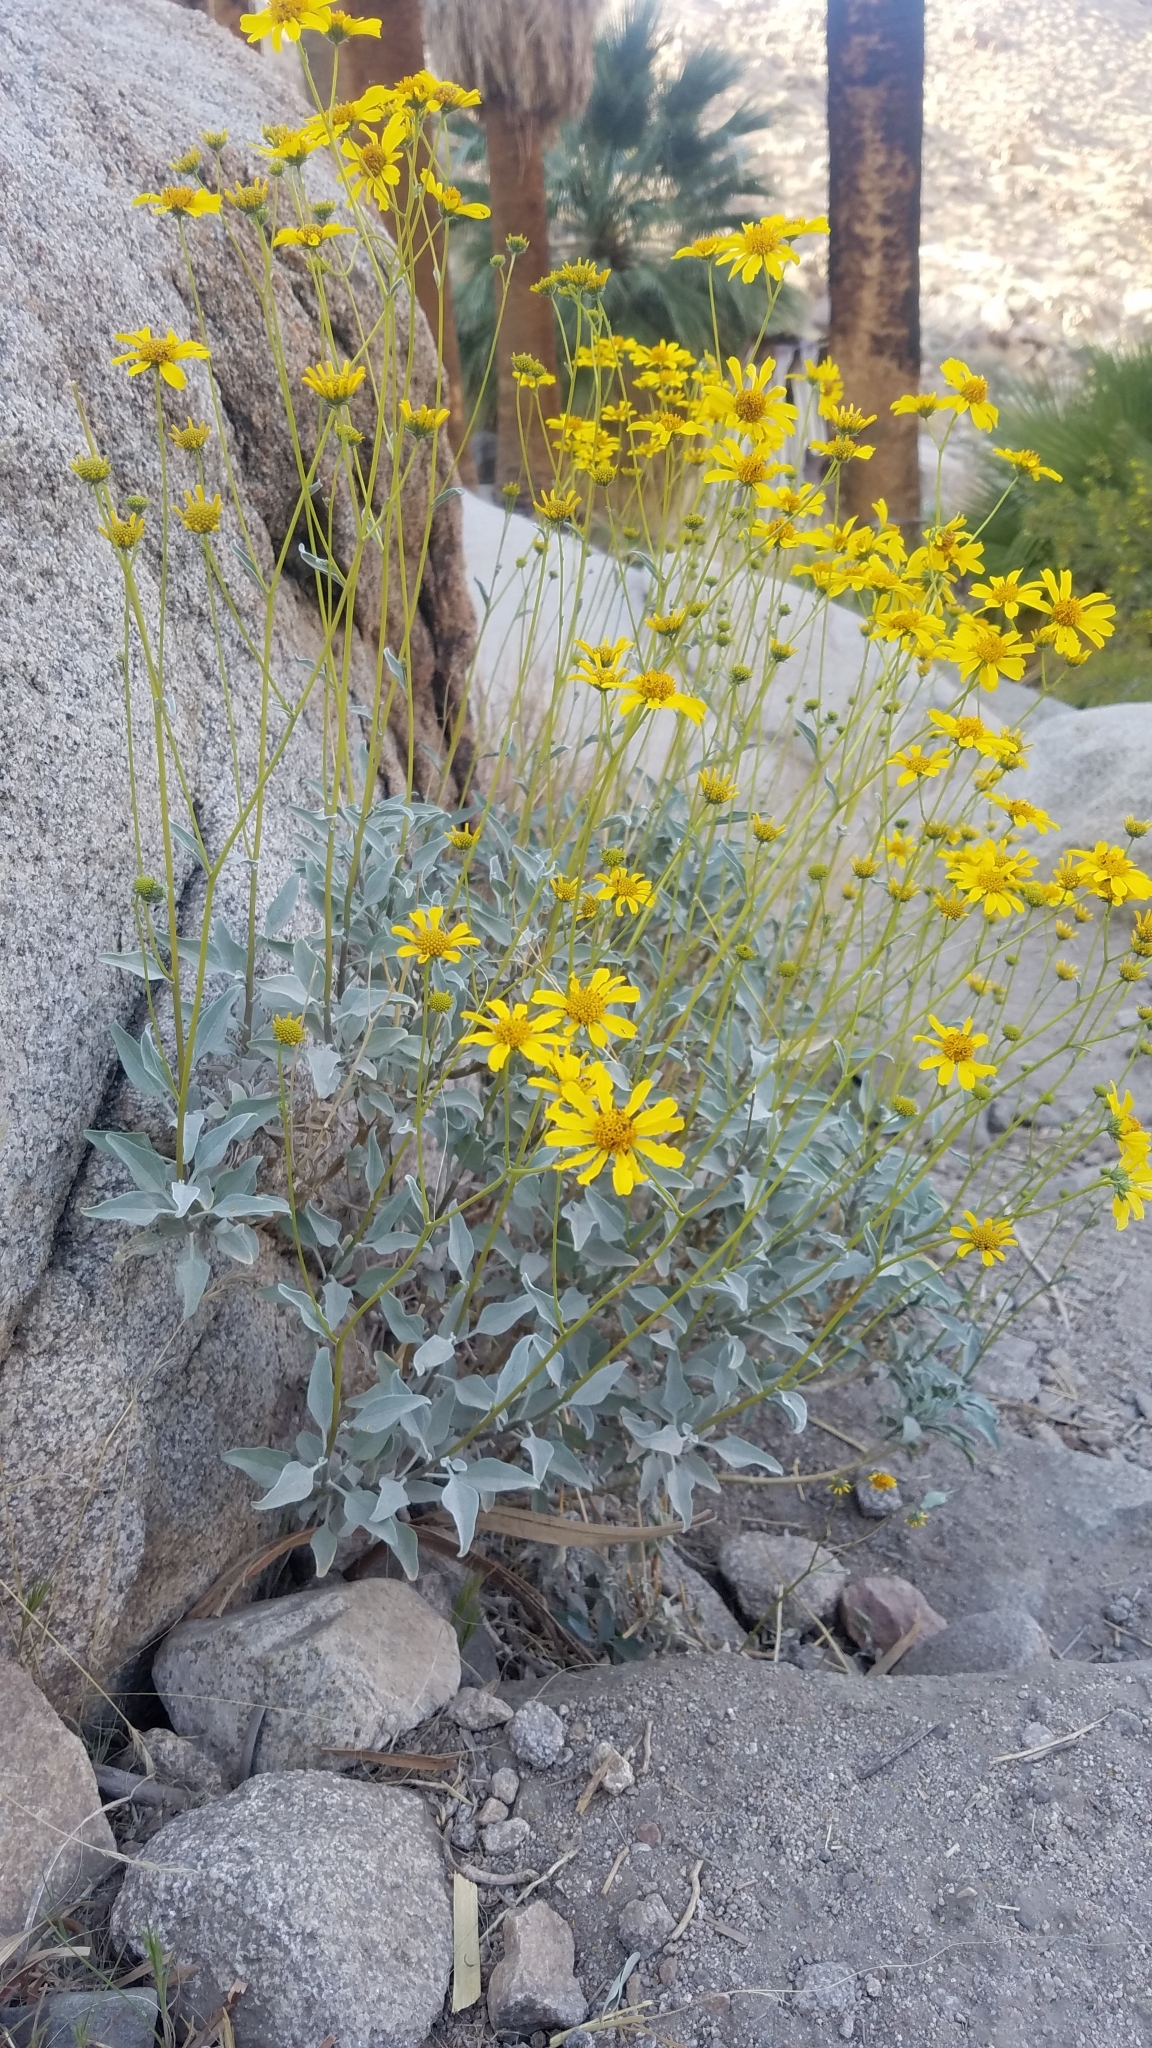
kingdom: Plantae
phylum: Tracheophyta
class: Magnoliopsida
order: Asterales
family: Asteraceae
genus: Encelia
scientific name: Encelia farinosa
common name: Brittlebush
